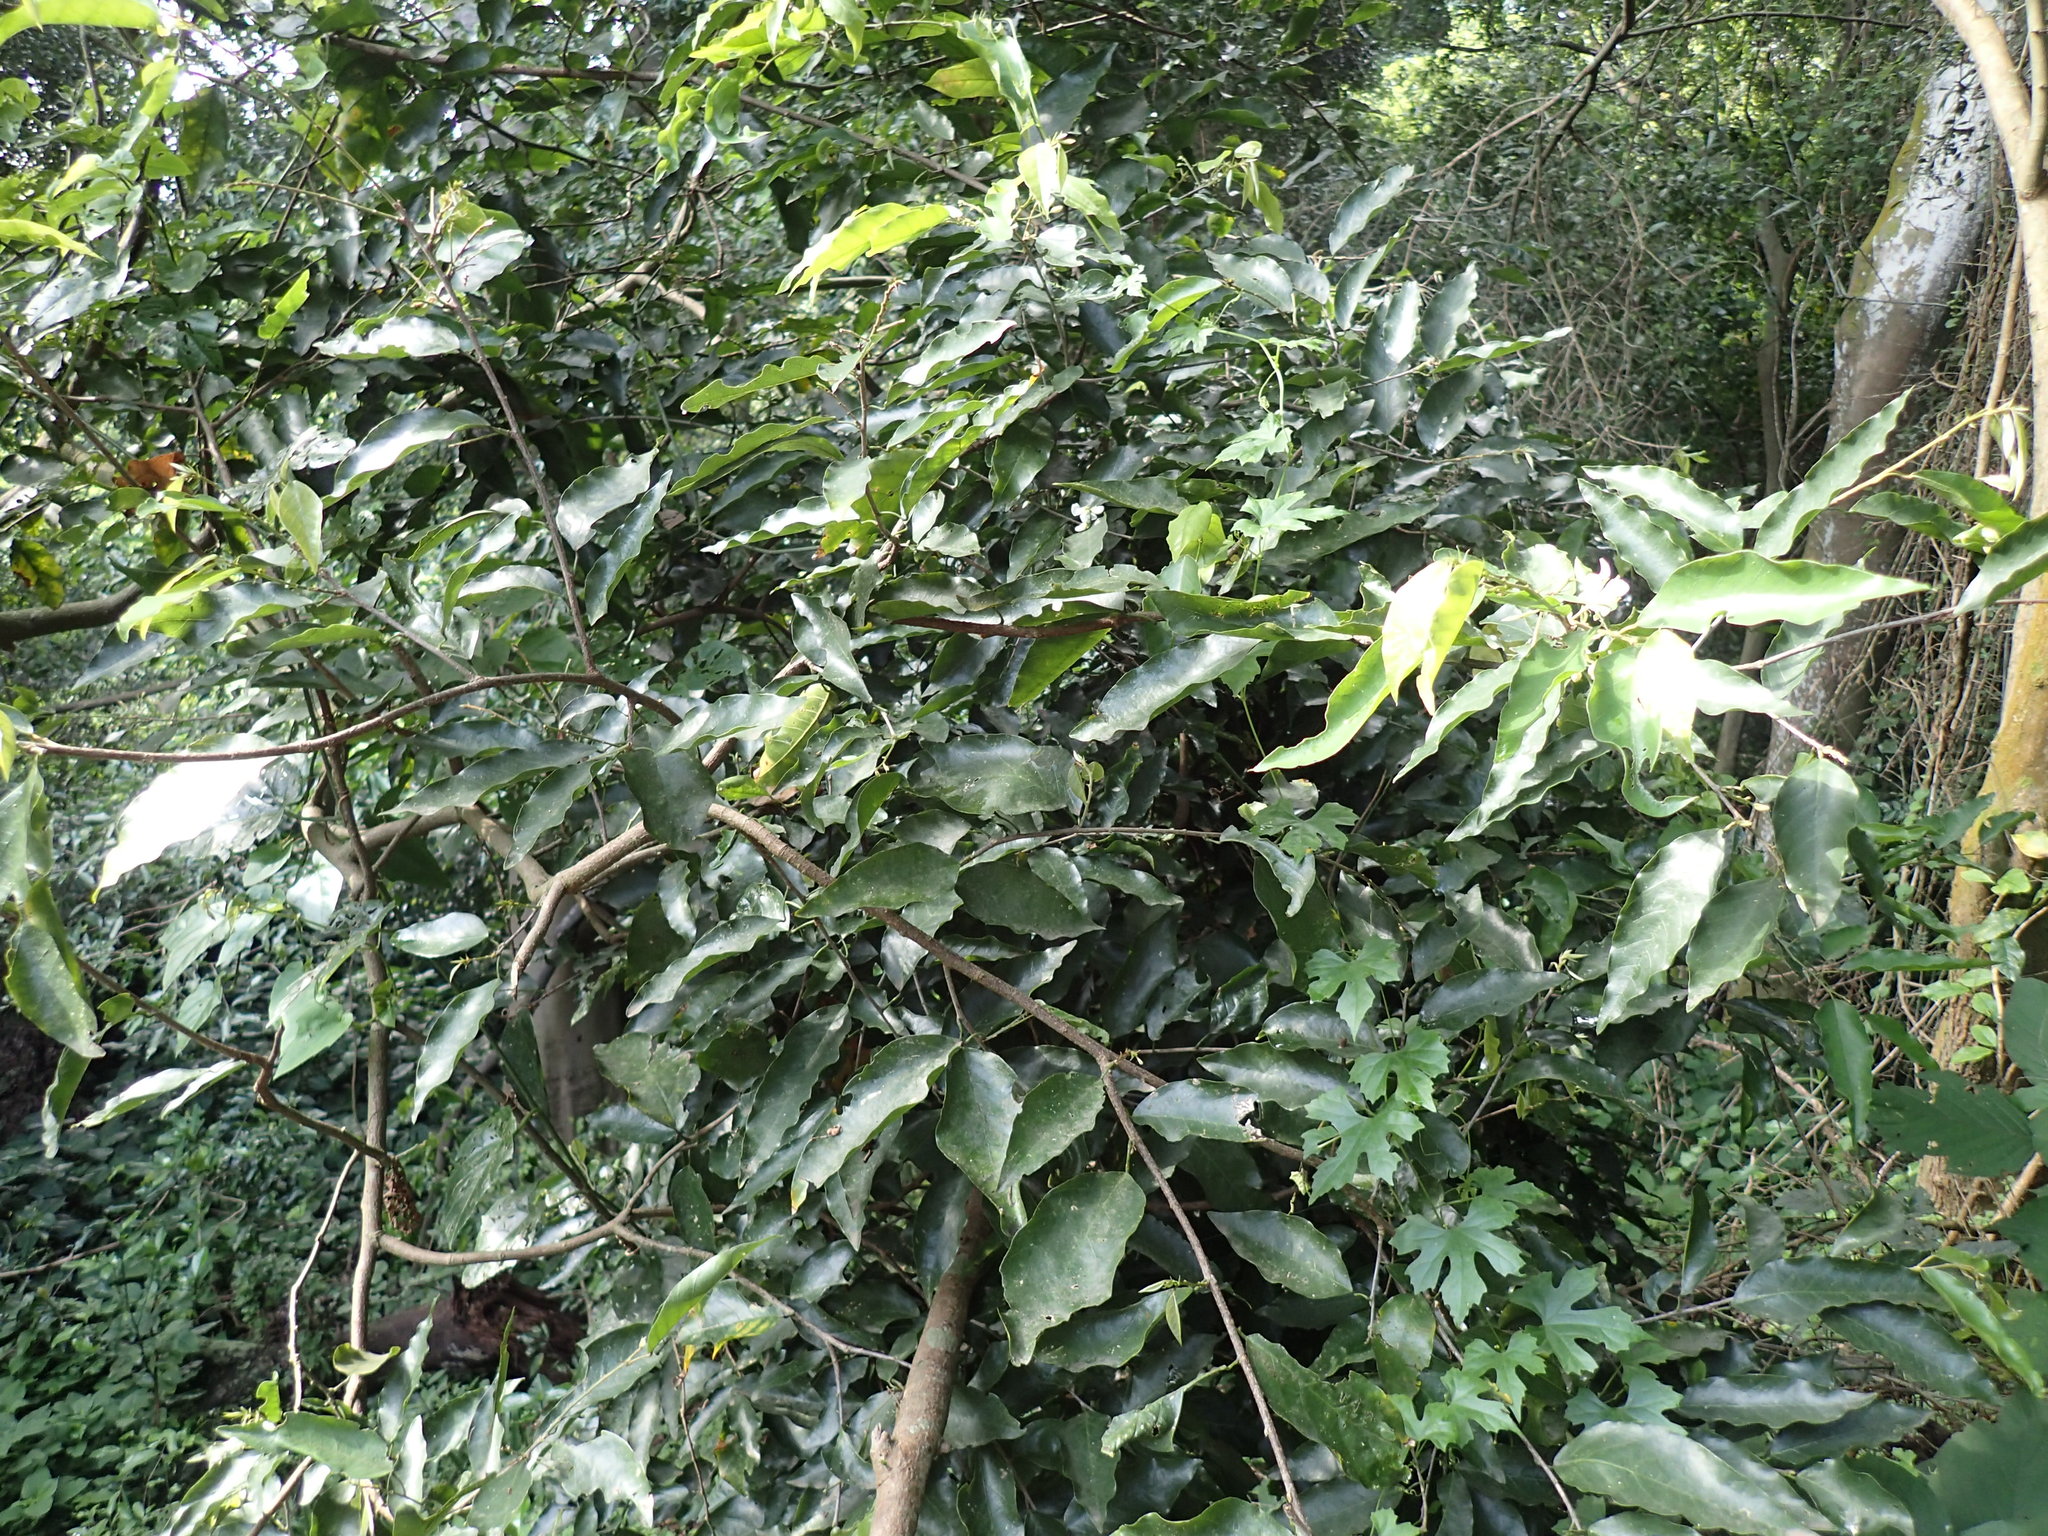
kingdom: Plantae
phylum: Tracheophyta
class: Magnoliopsida
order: Fabales
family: Fabaceae
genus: Bracteolaria
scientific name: Bracteolaria racemosa
